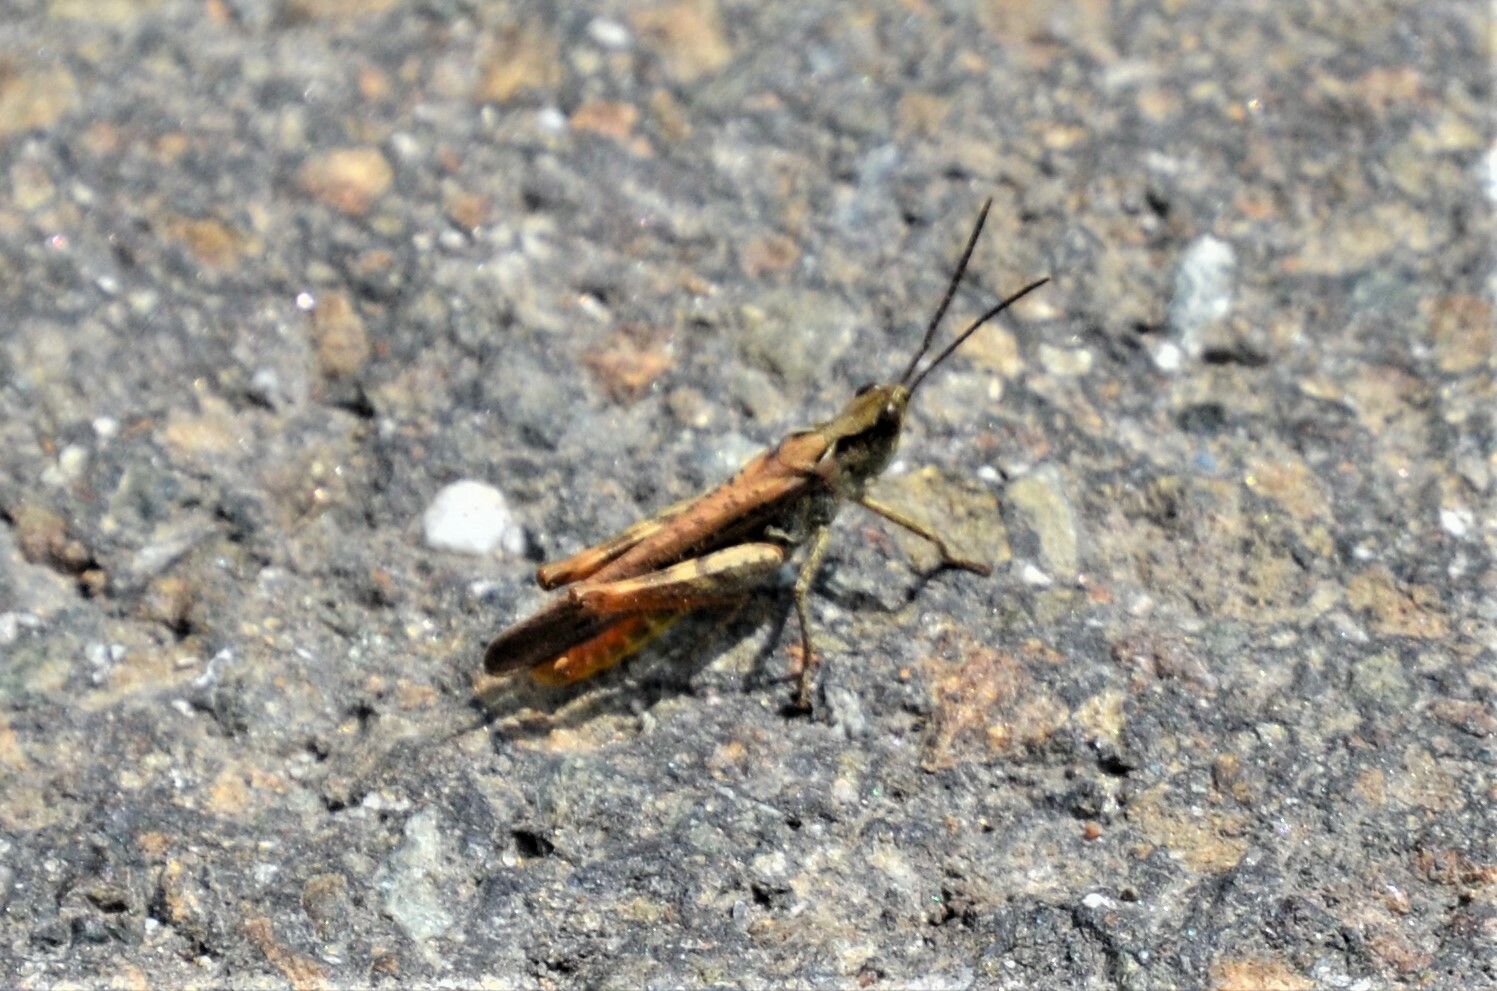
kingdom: Animalia
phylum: Arthropoda
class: Insecta
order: Orthoptera
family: Acrididae
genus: Chorthippus
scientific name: Chorthippus brunneus
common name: Field grasshopper
